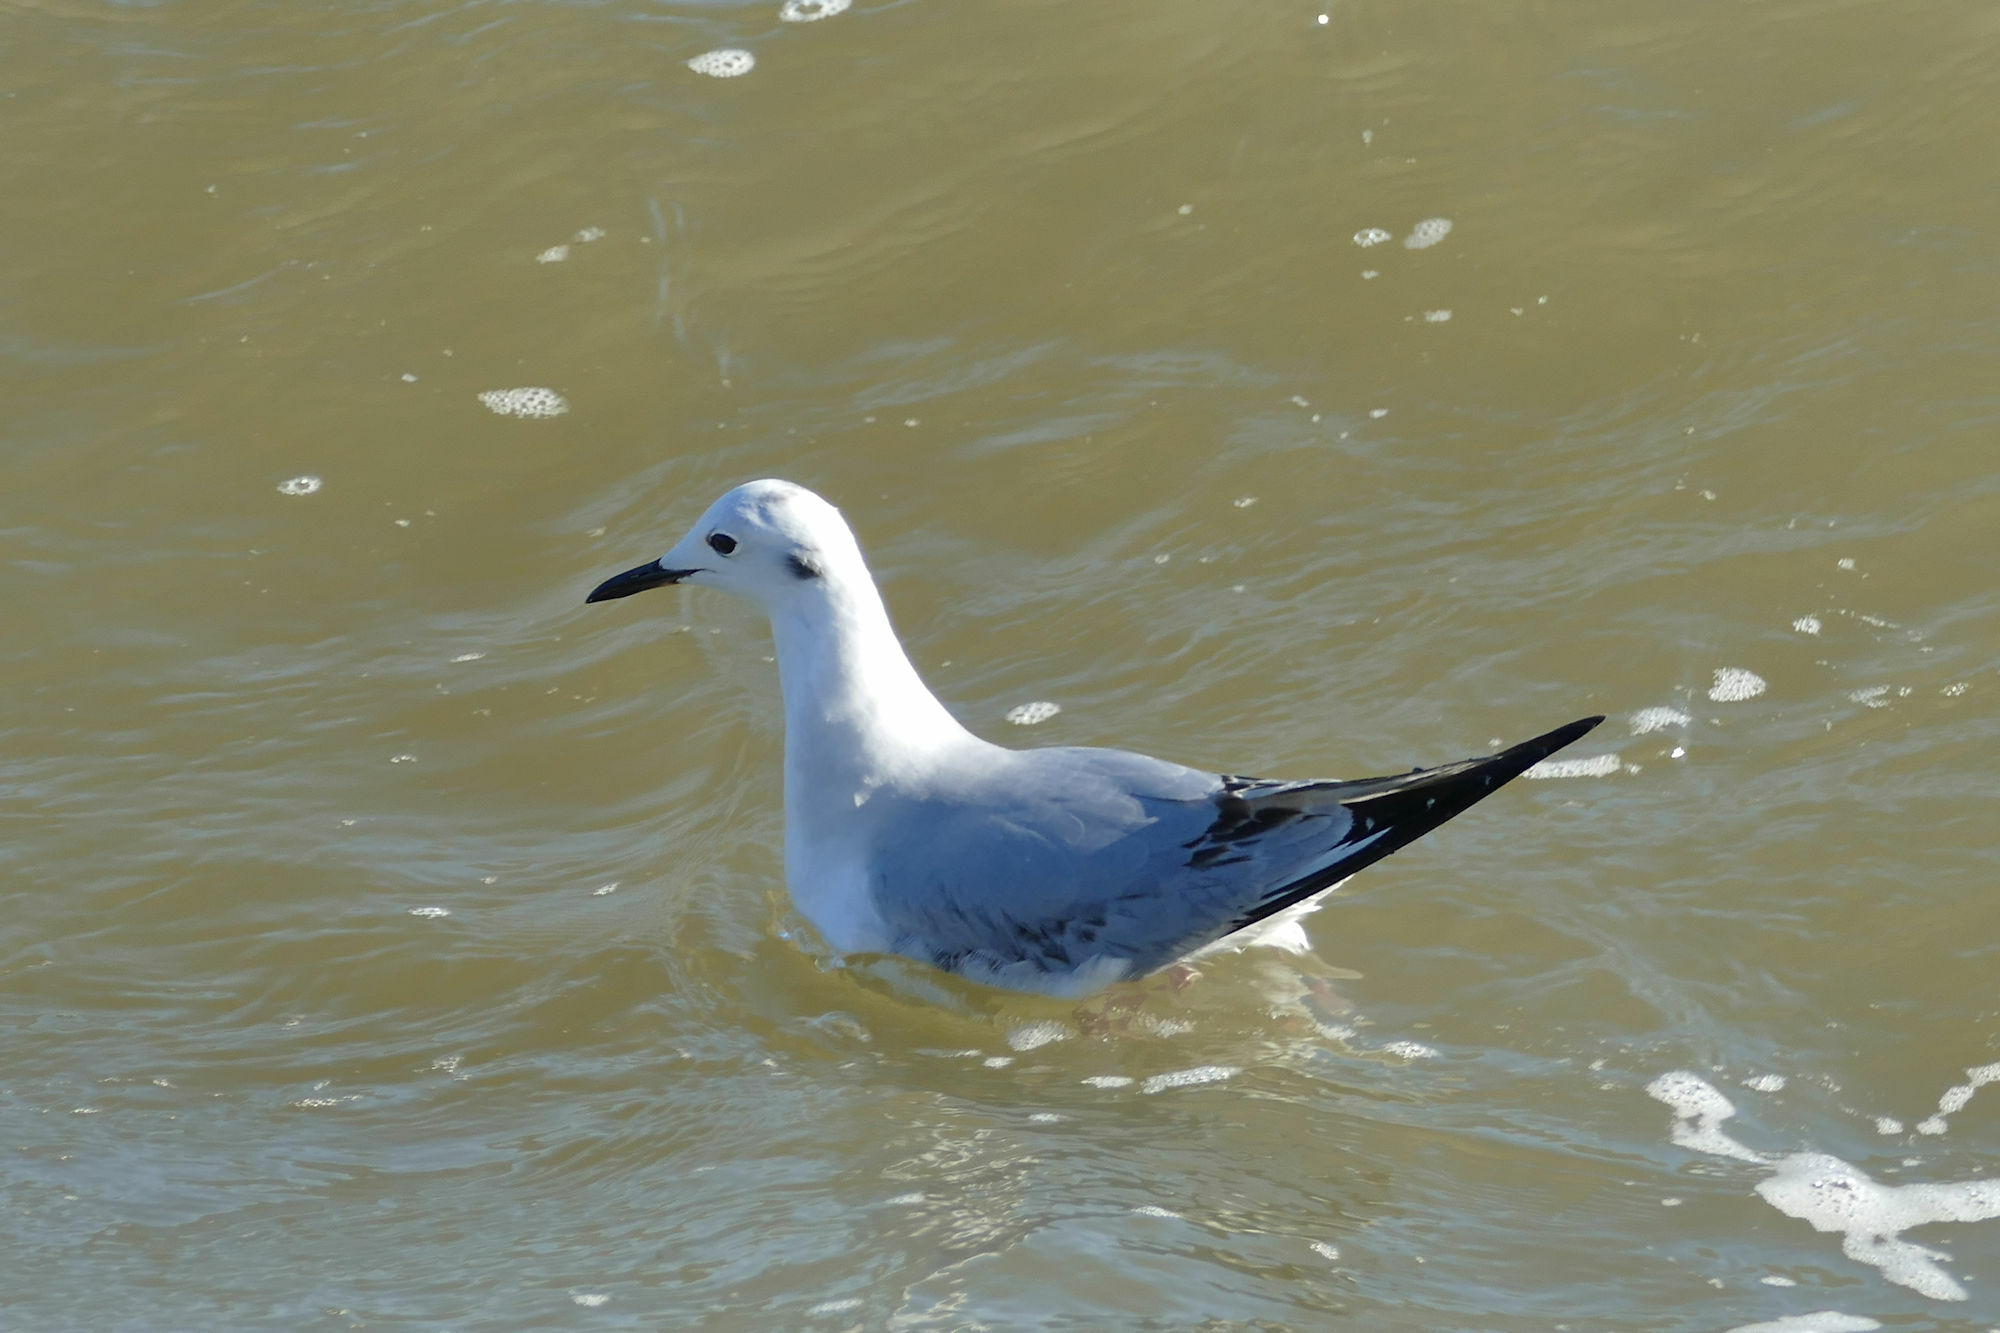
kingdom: Animalia
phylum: Chordata
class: Aves
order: Charadriiformes
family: Laridae
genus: Chroicocephalus
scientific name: Chroicocephalus philadelphia
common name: Bonaparte's gull
